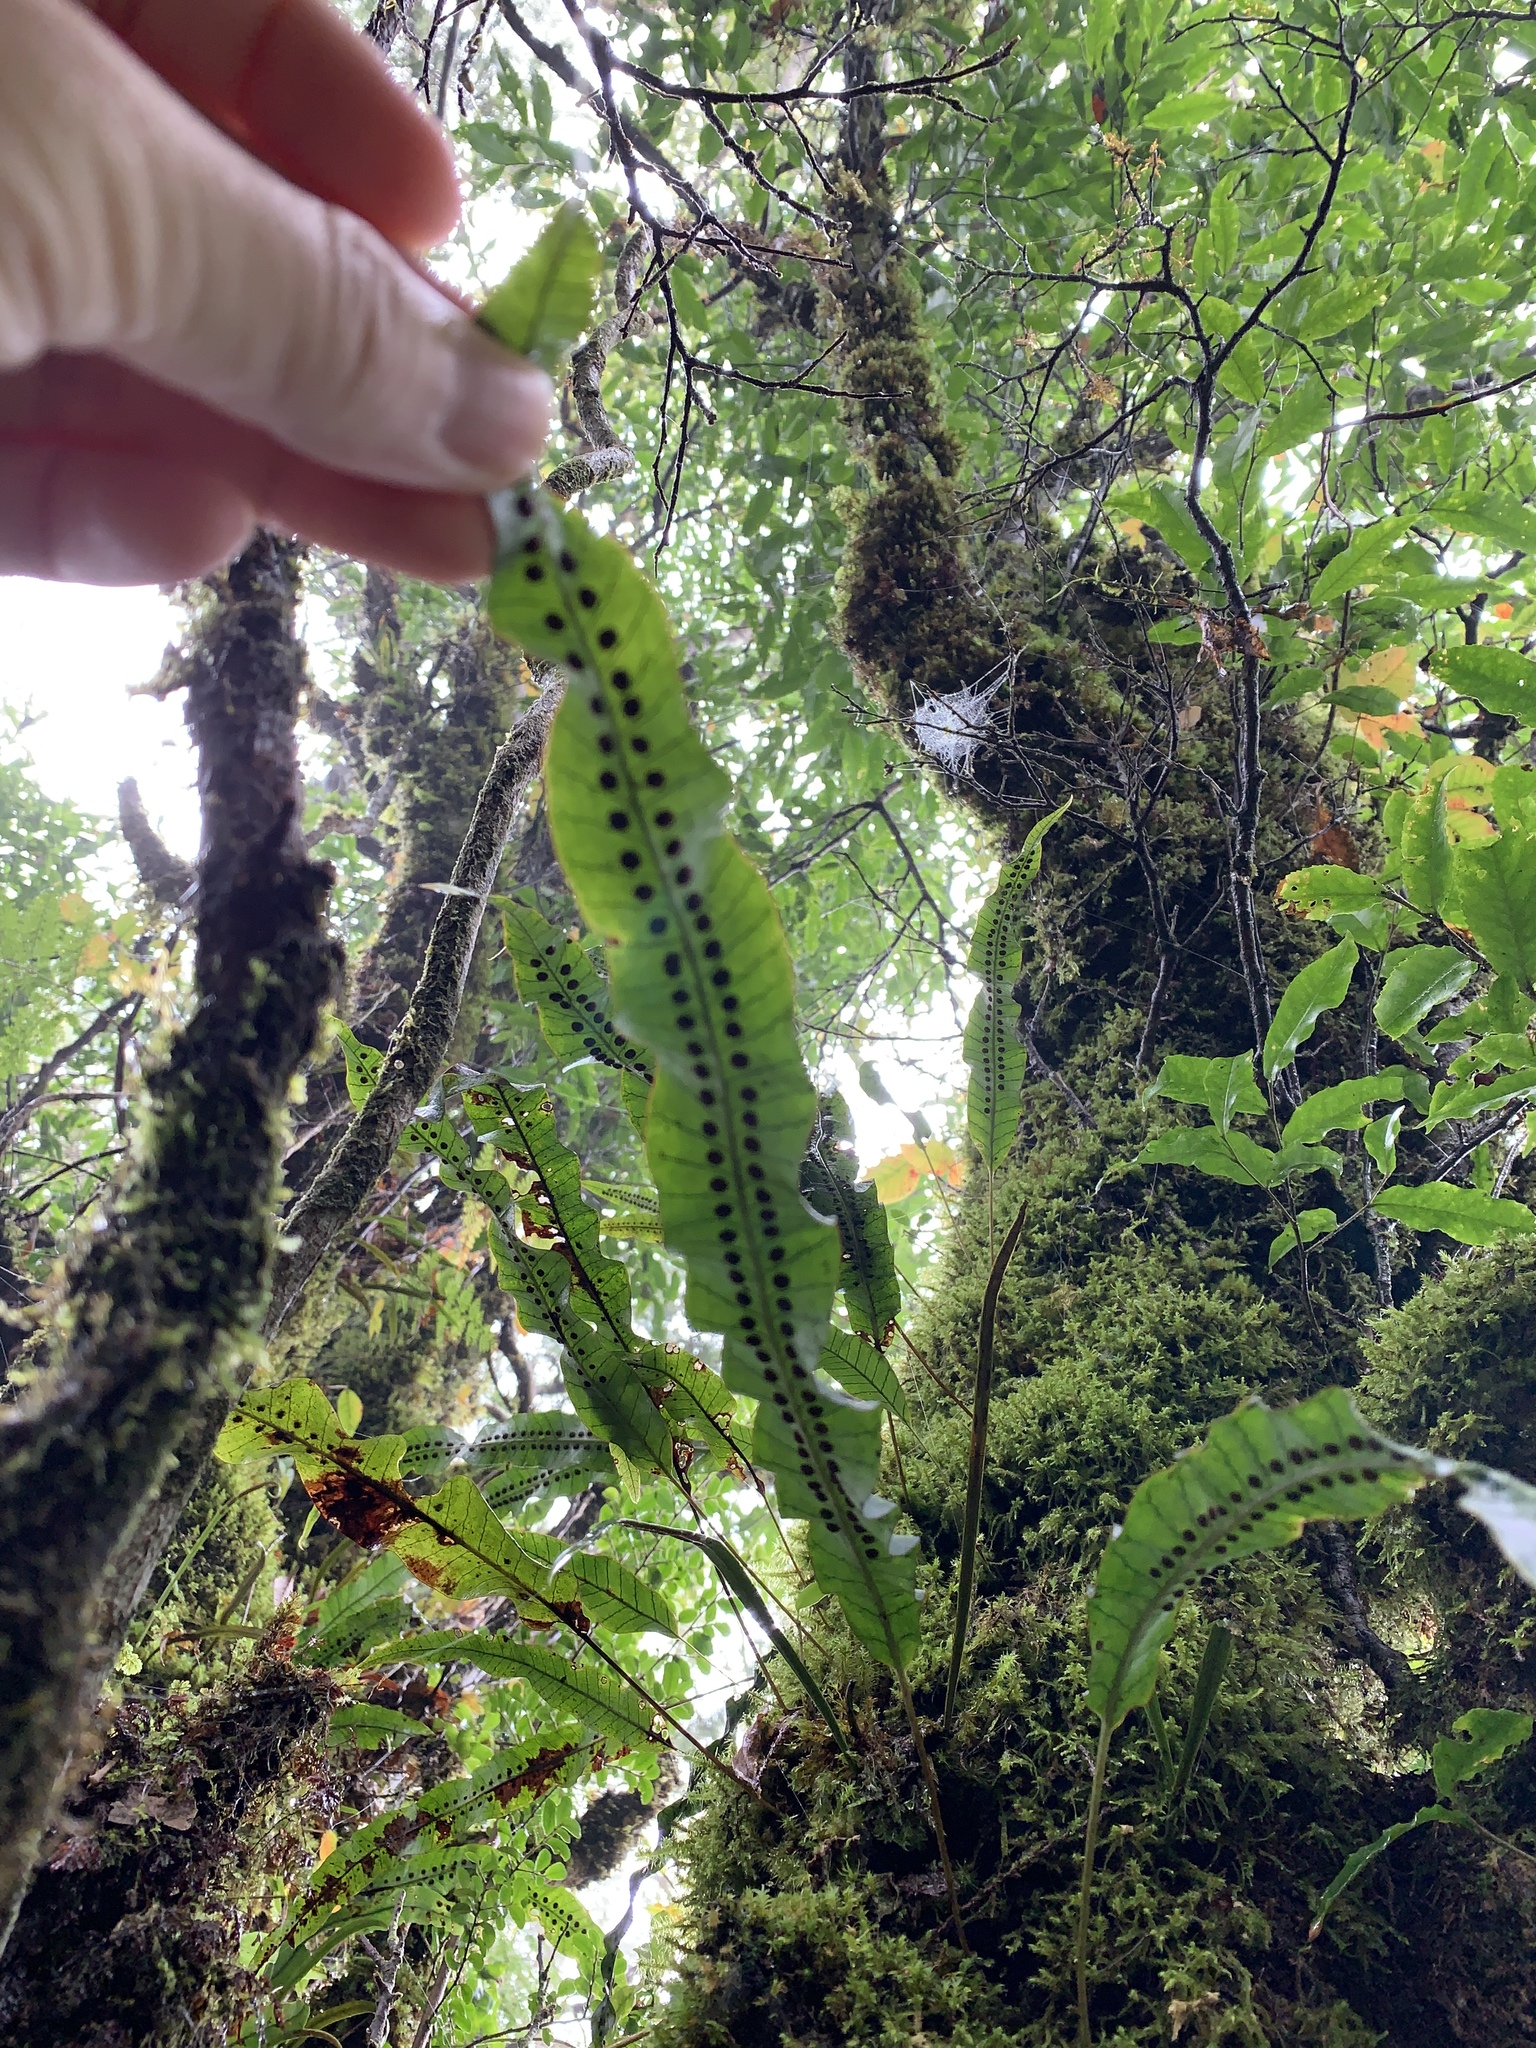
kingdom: Plantae
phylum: Tracheophyta
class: Polypodiopsida
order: Polypodiales
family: Polypodiaceae
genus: Selliguea
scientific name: Selliguea engleri
